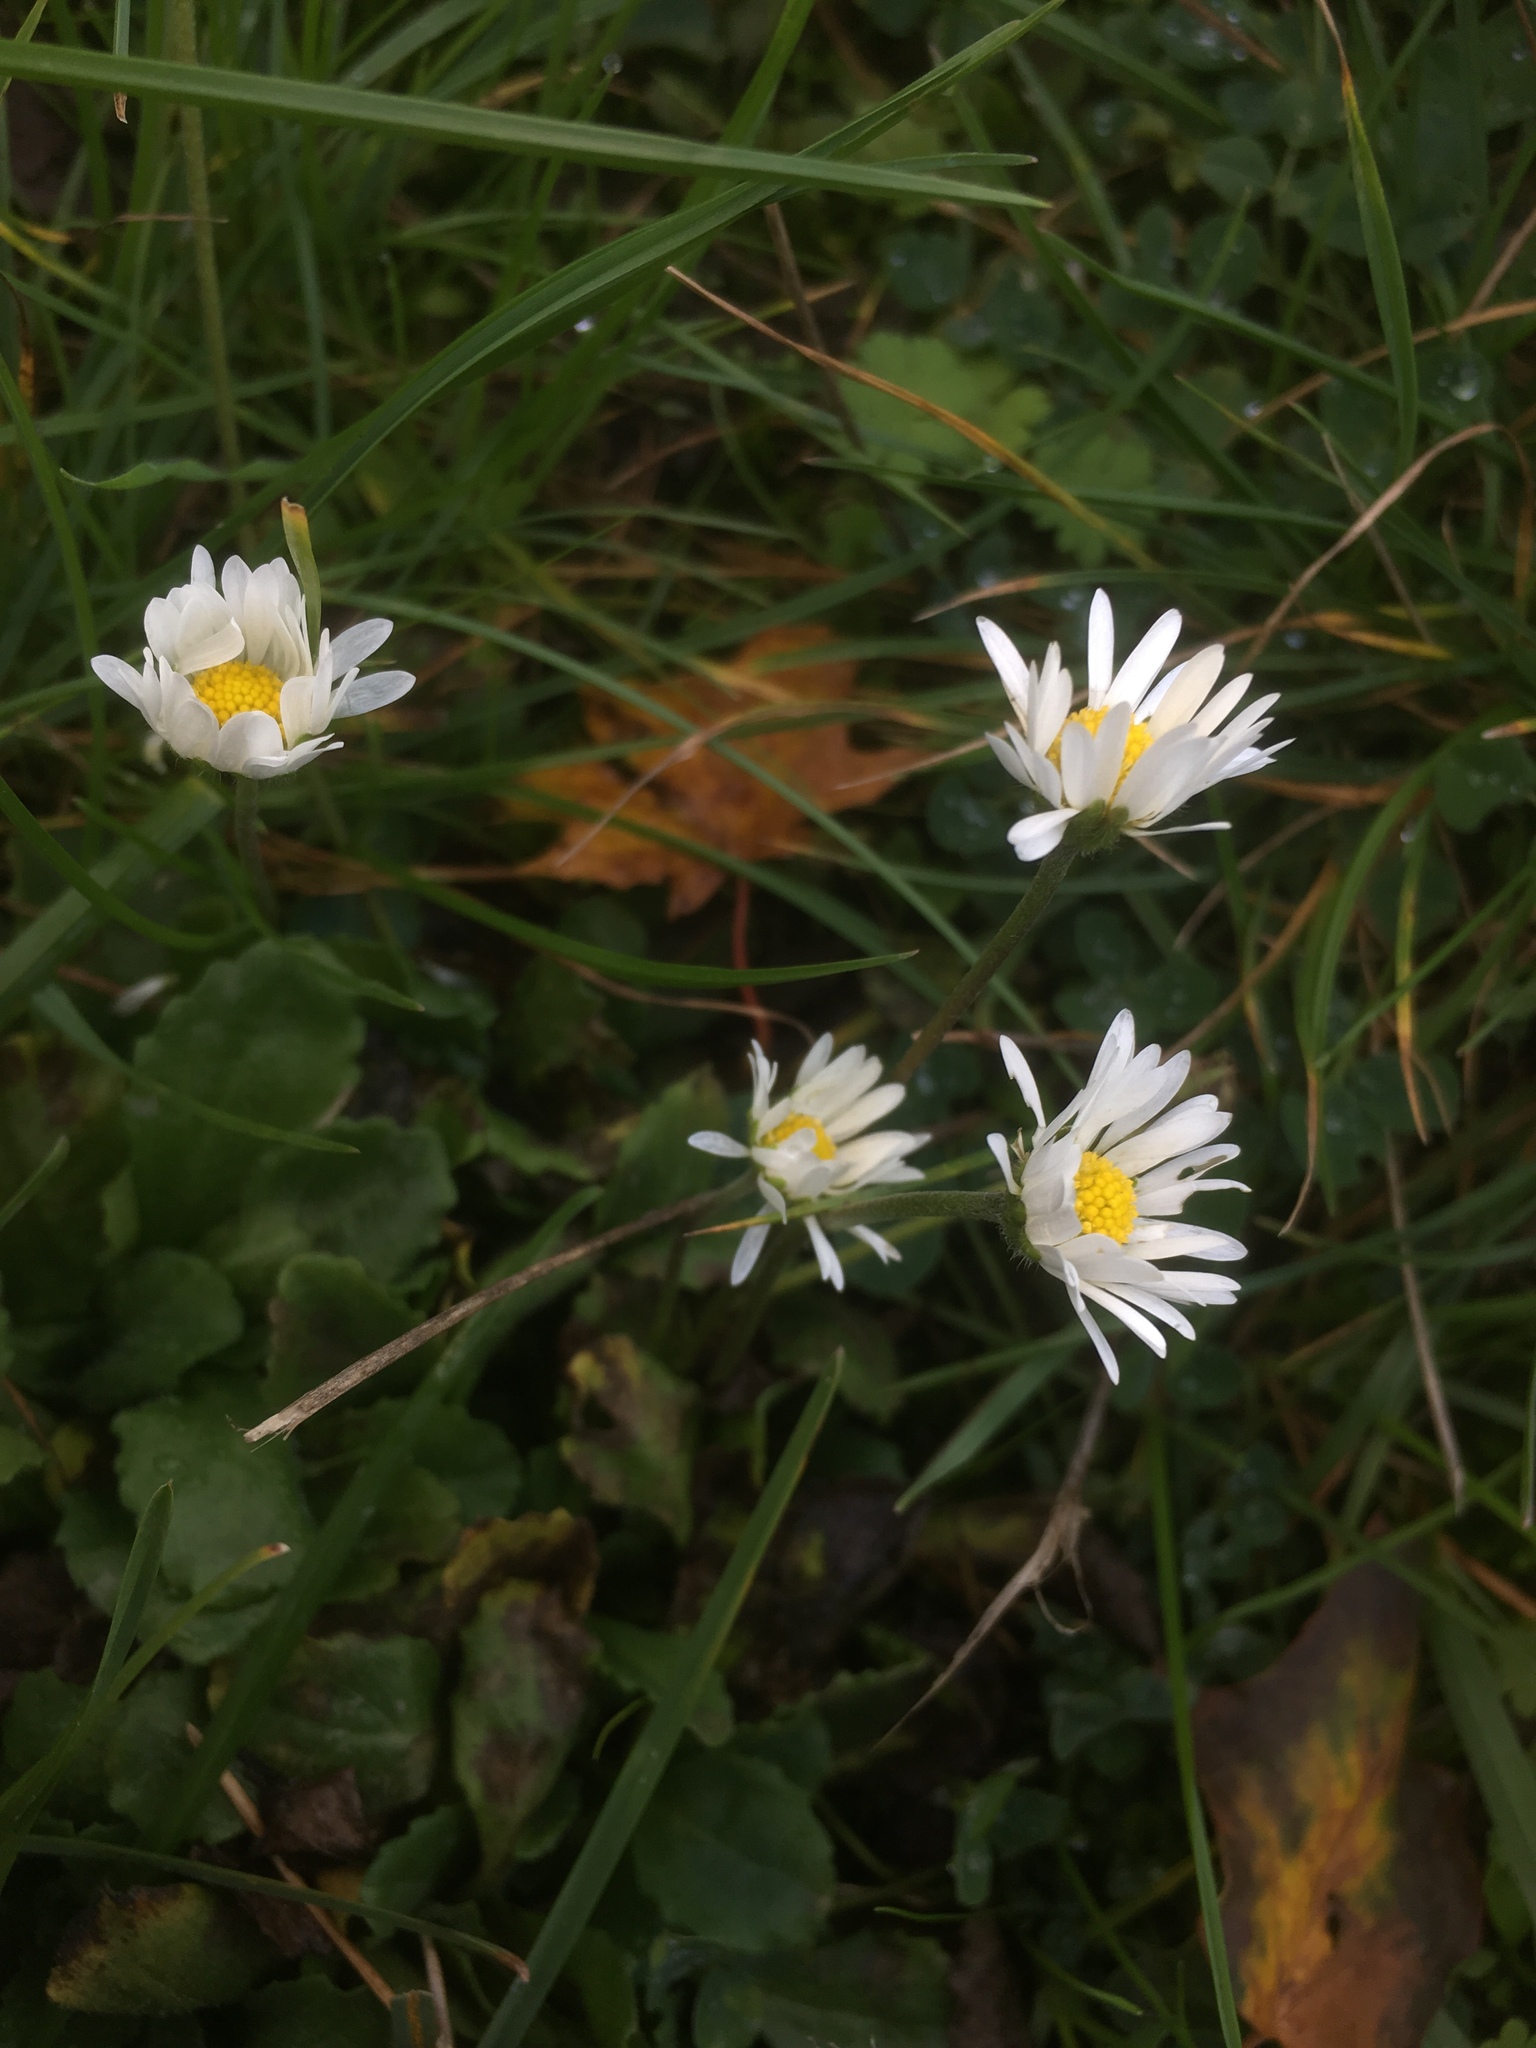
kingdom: Plantae
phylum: Tracheophyta
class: Magnoliopsida
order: Asterales
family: Asteraceae
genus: Bellis
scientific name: Bellis perennis
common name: Lawndaisy
